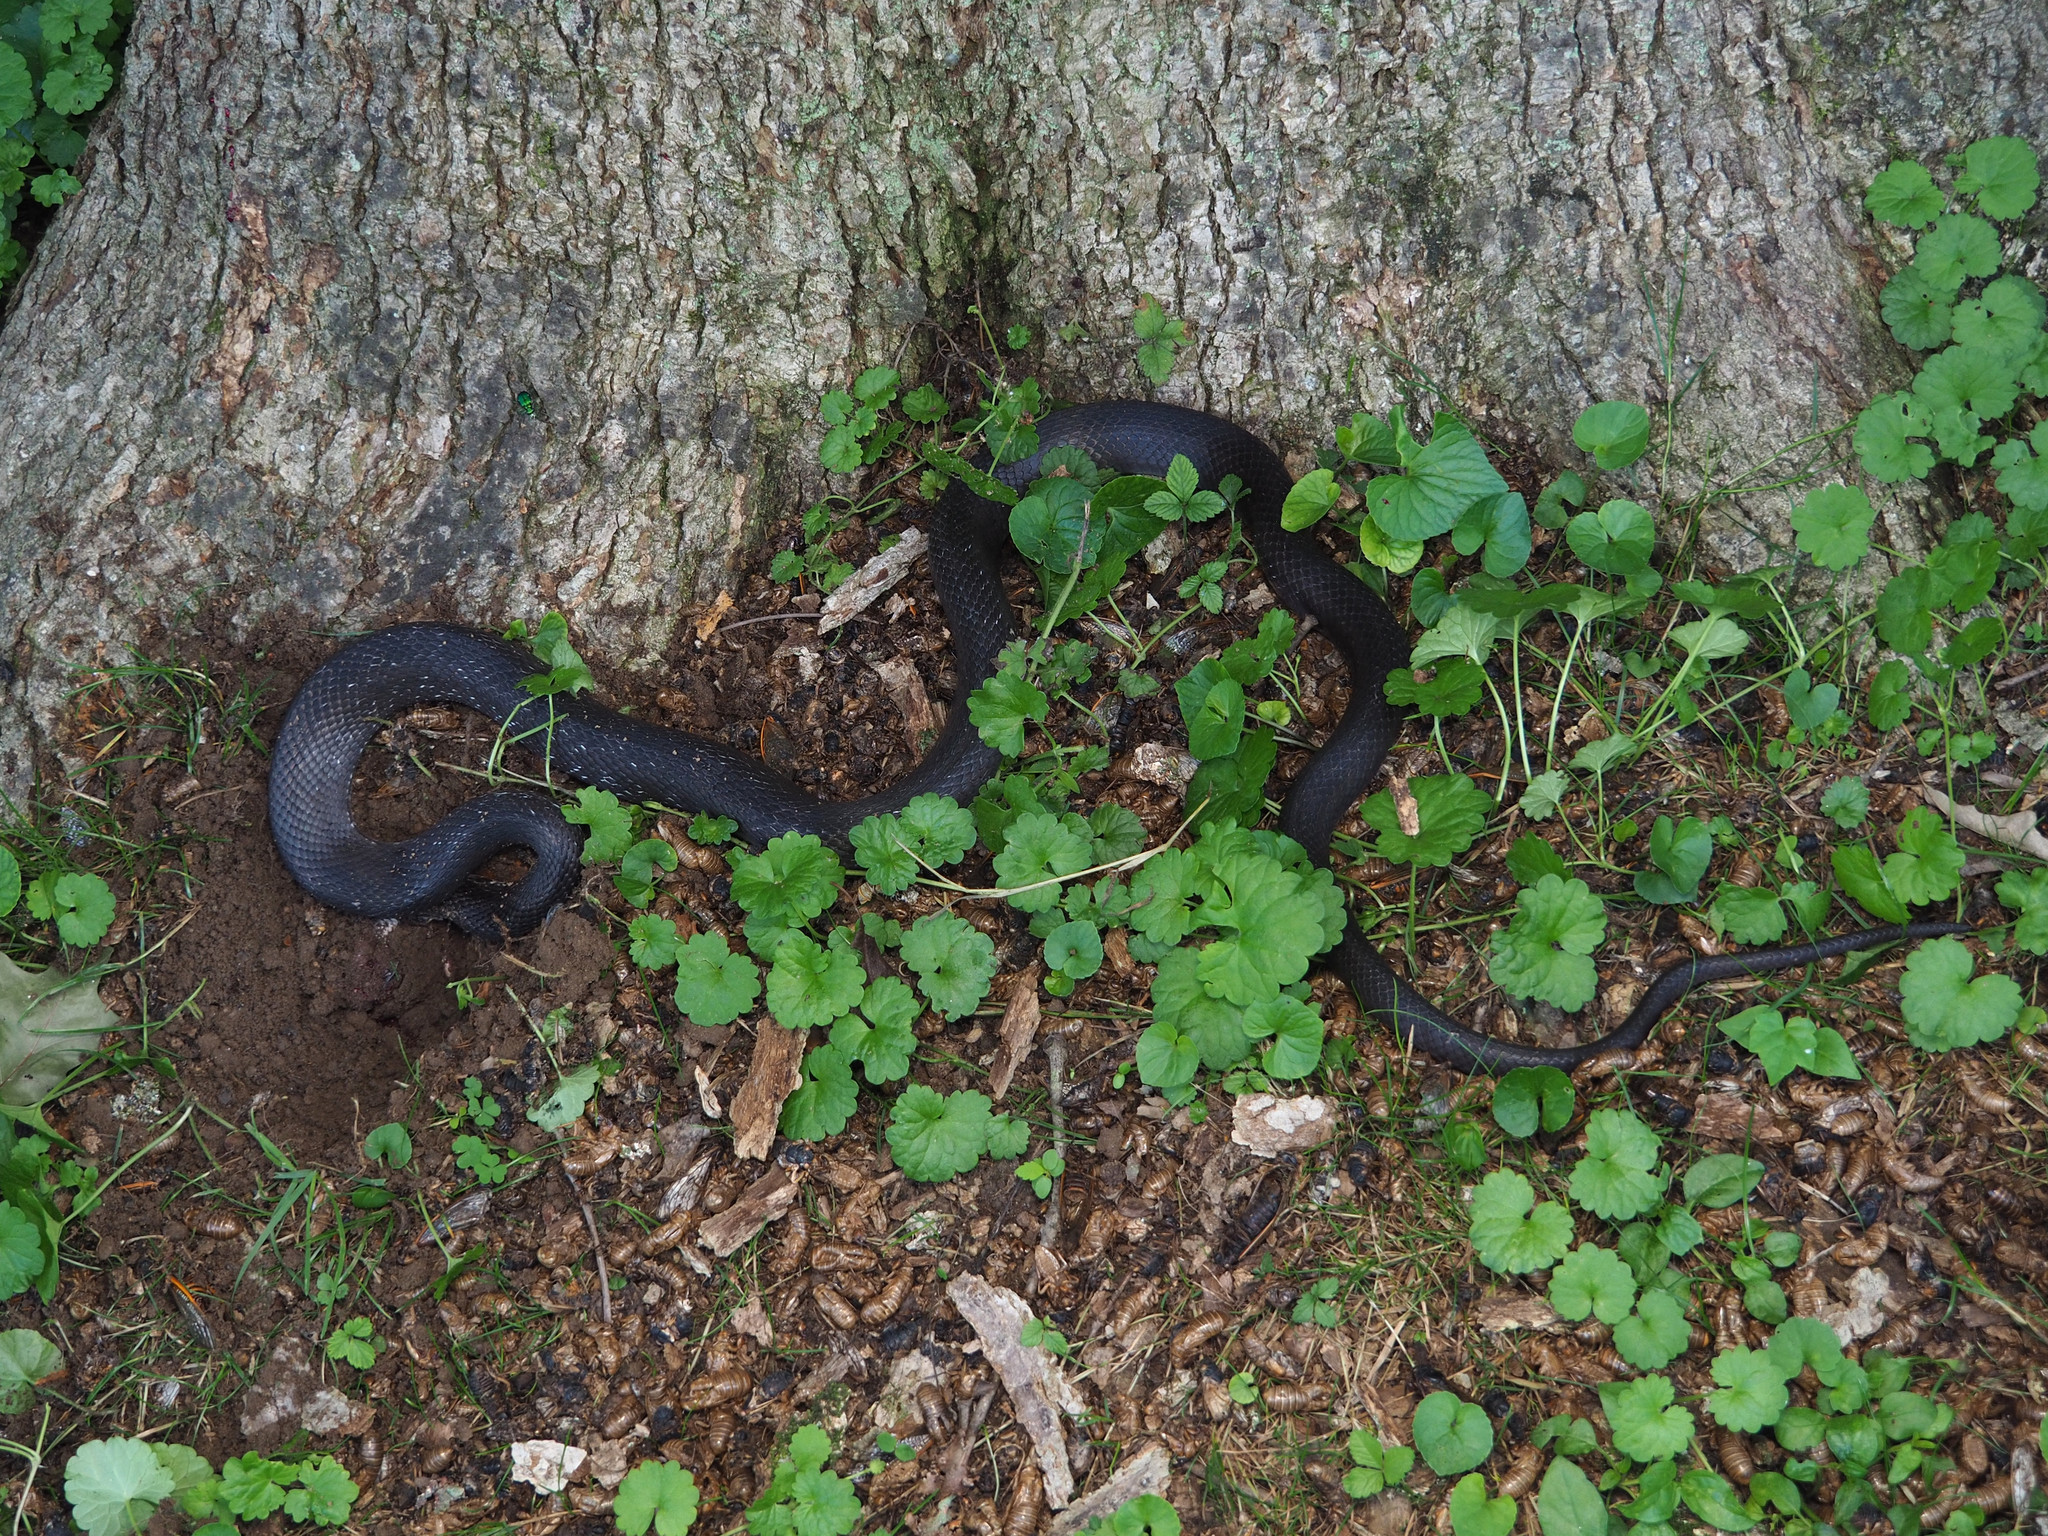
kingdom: Animalia
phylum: Chordata
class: Squamata
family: Colubridae
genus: Pantherophis
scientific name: Pantherophis alleghaniensis
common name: Eastern rat snake
